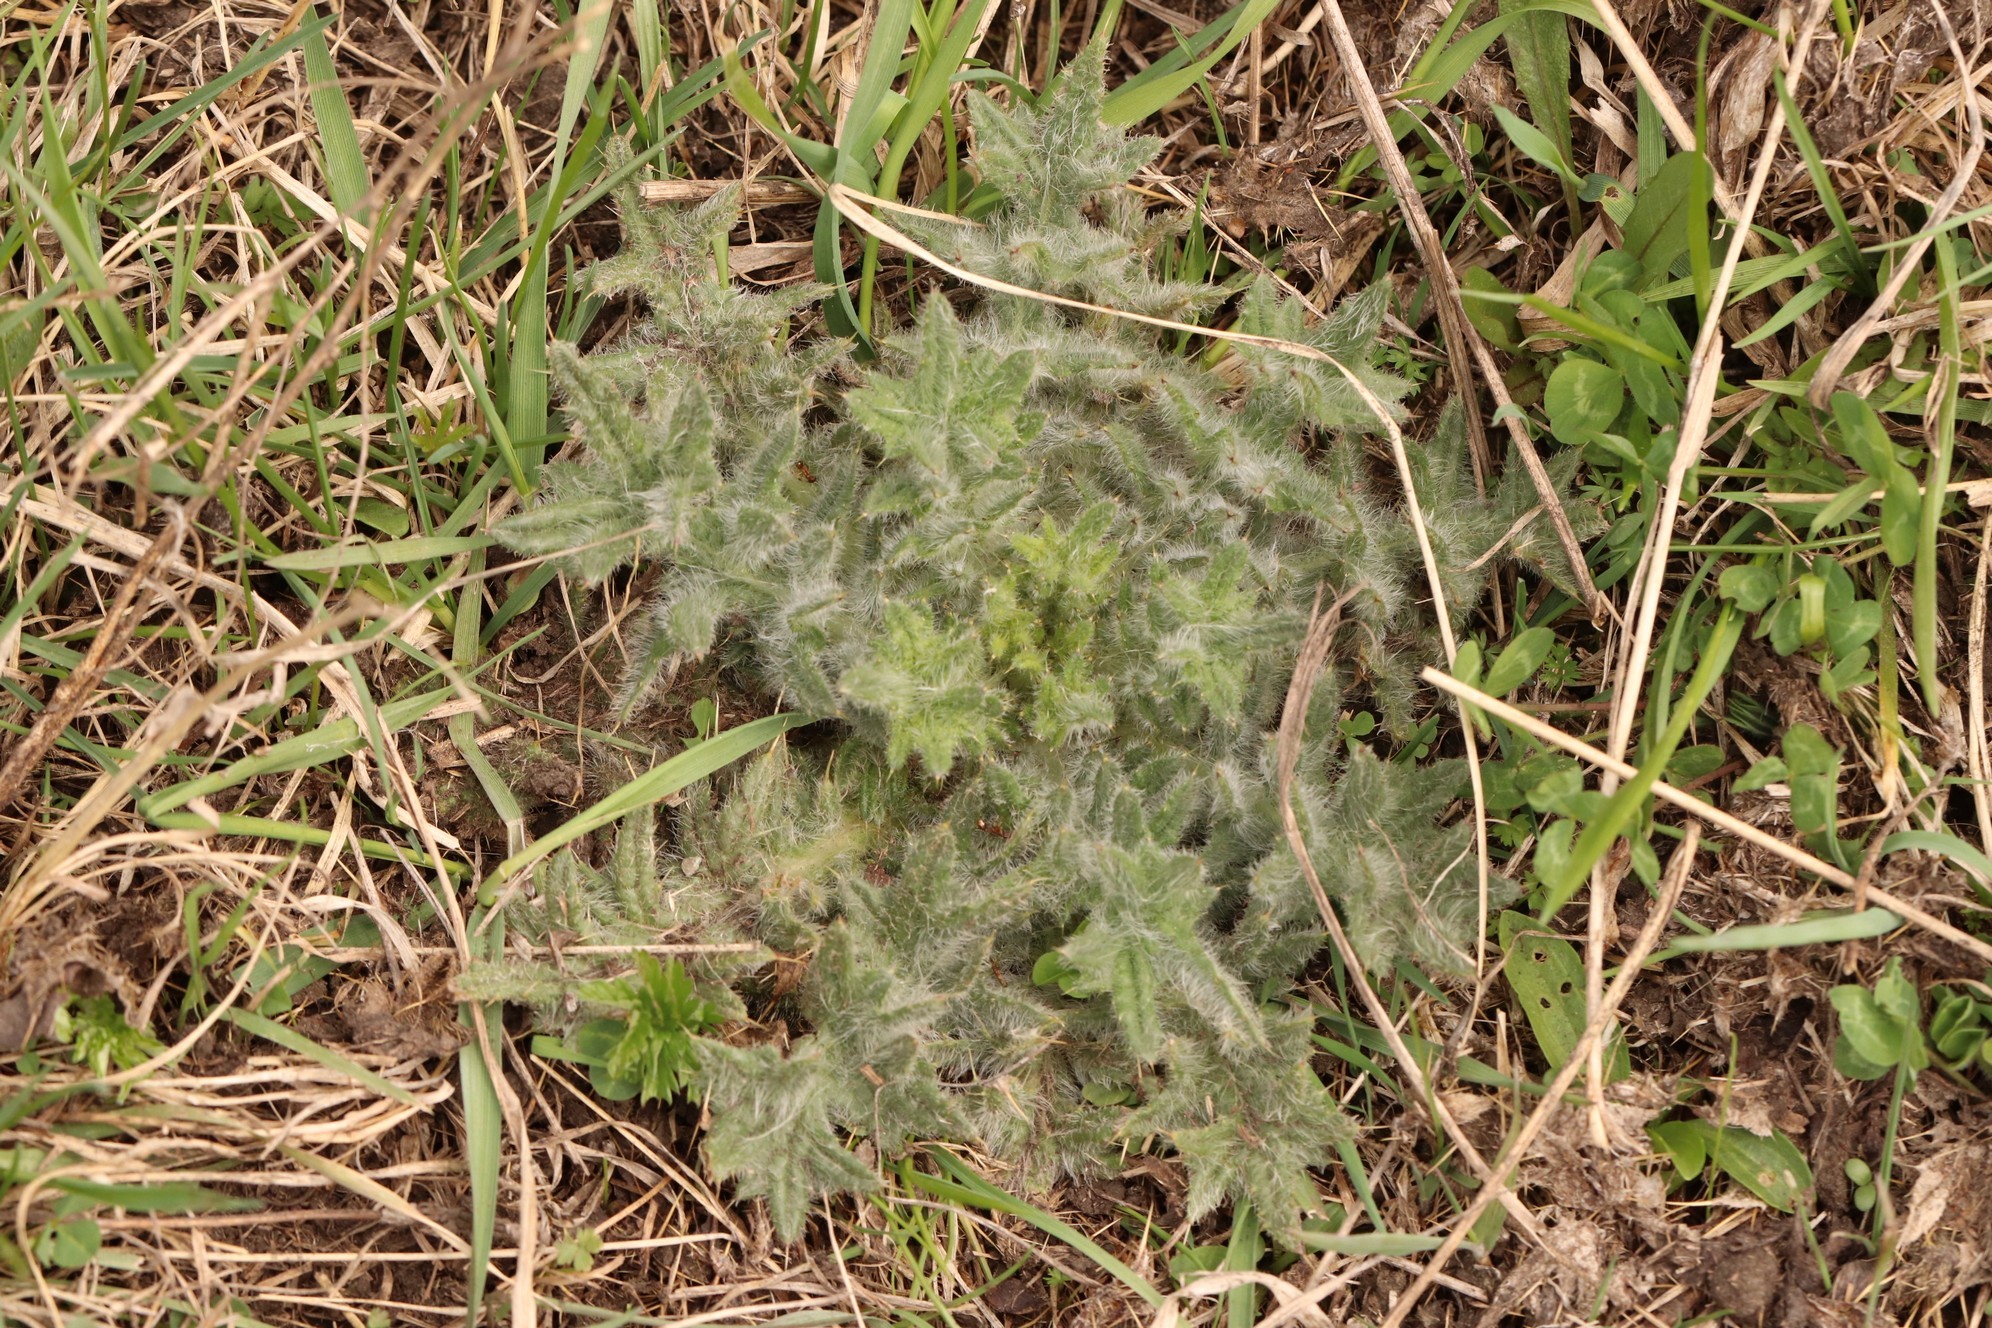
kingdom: Plantae
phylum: Tracheophyta
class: Magnoliopsida
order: Asterales
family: Asteraceae
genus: Cirsium
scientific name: Cirsium vulgare
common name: Bull thistle
